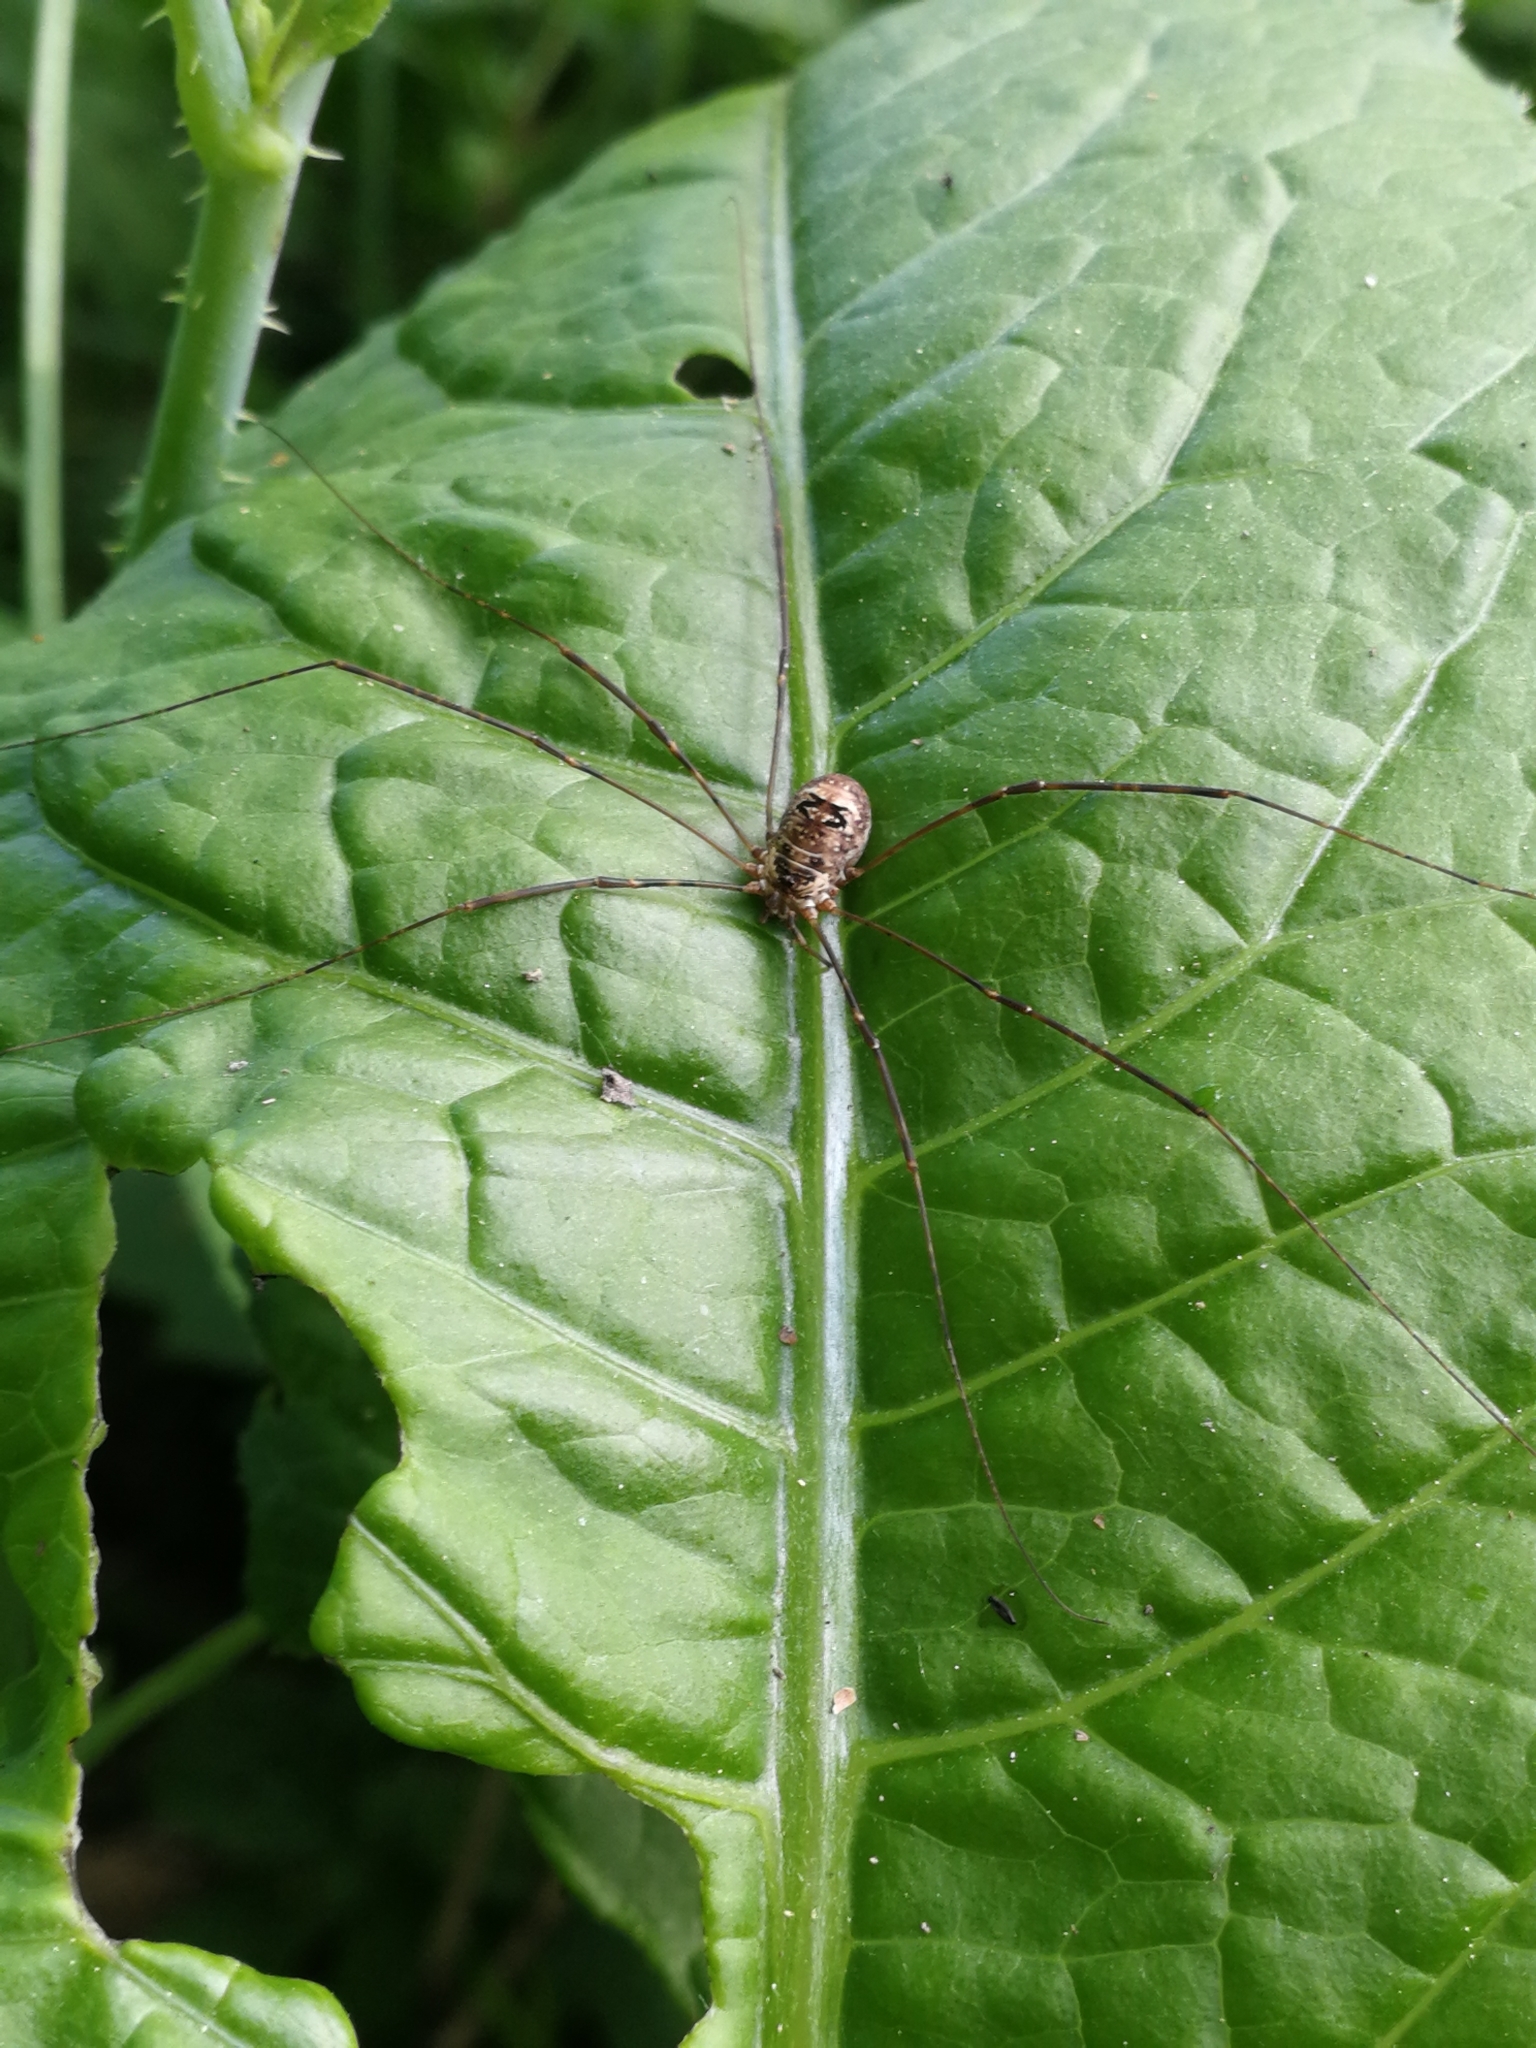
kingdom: Animalia
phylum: Arthropoda
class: Arachnida
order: Opiliones
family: Phalangiidae
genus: Amilenus
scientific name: Amilenus aurantiacus
